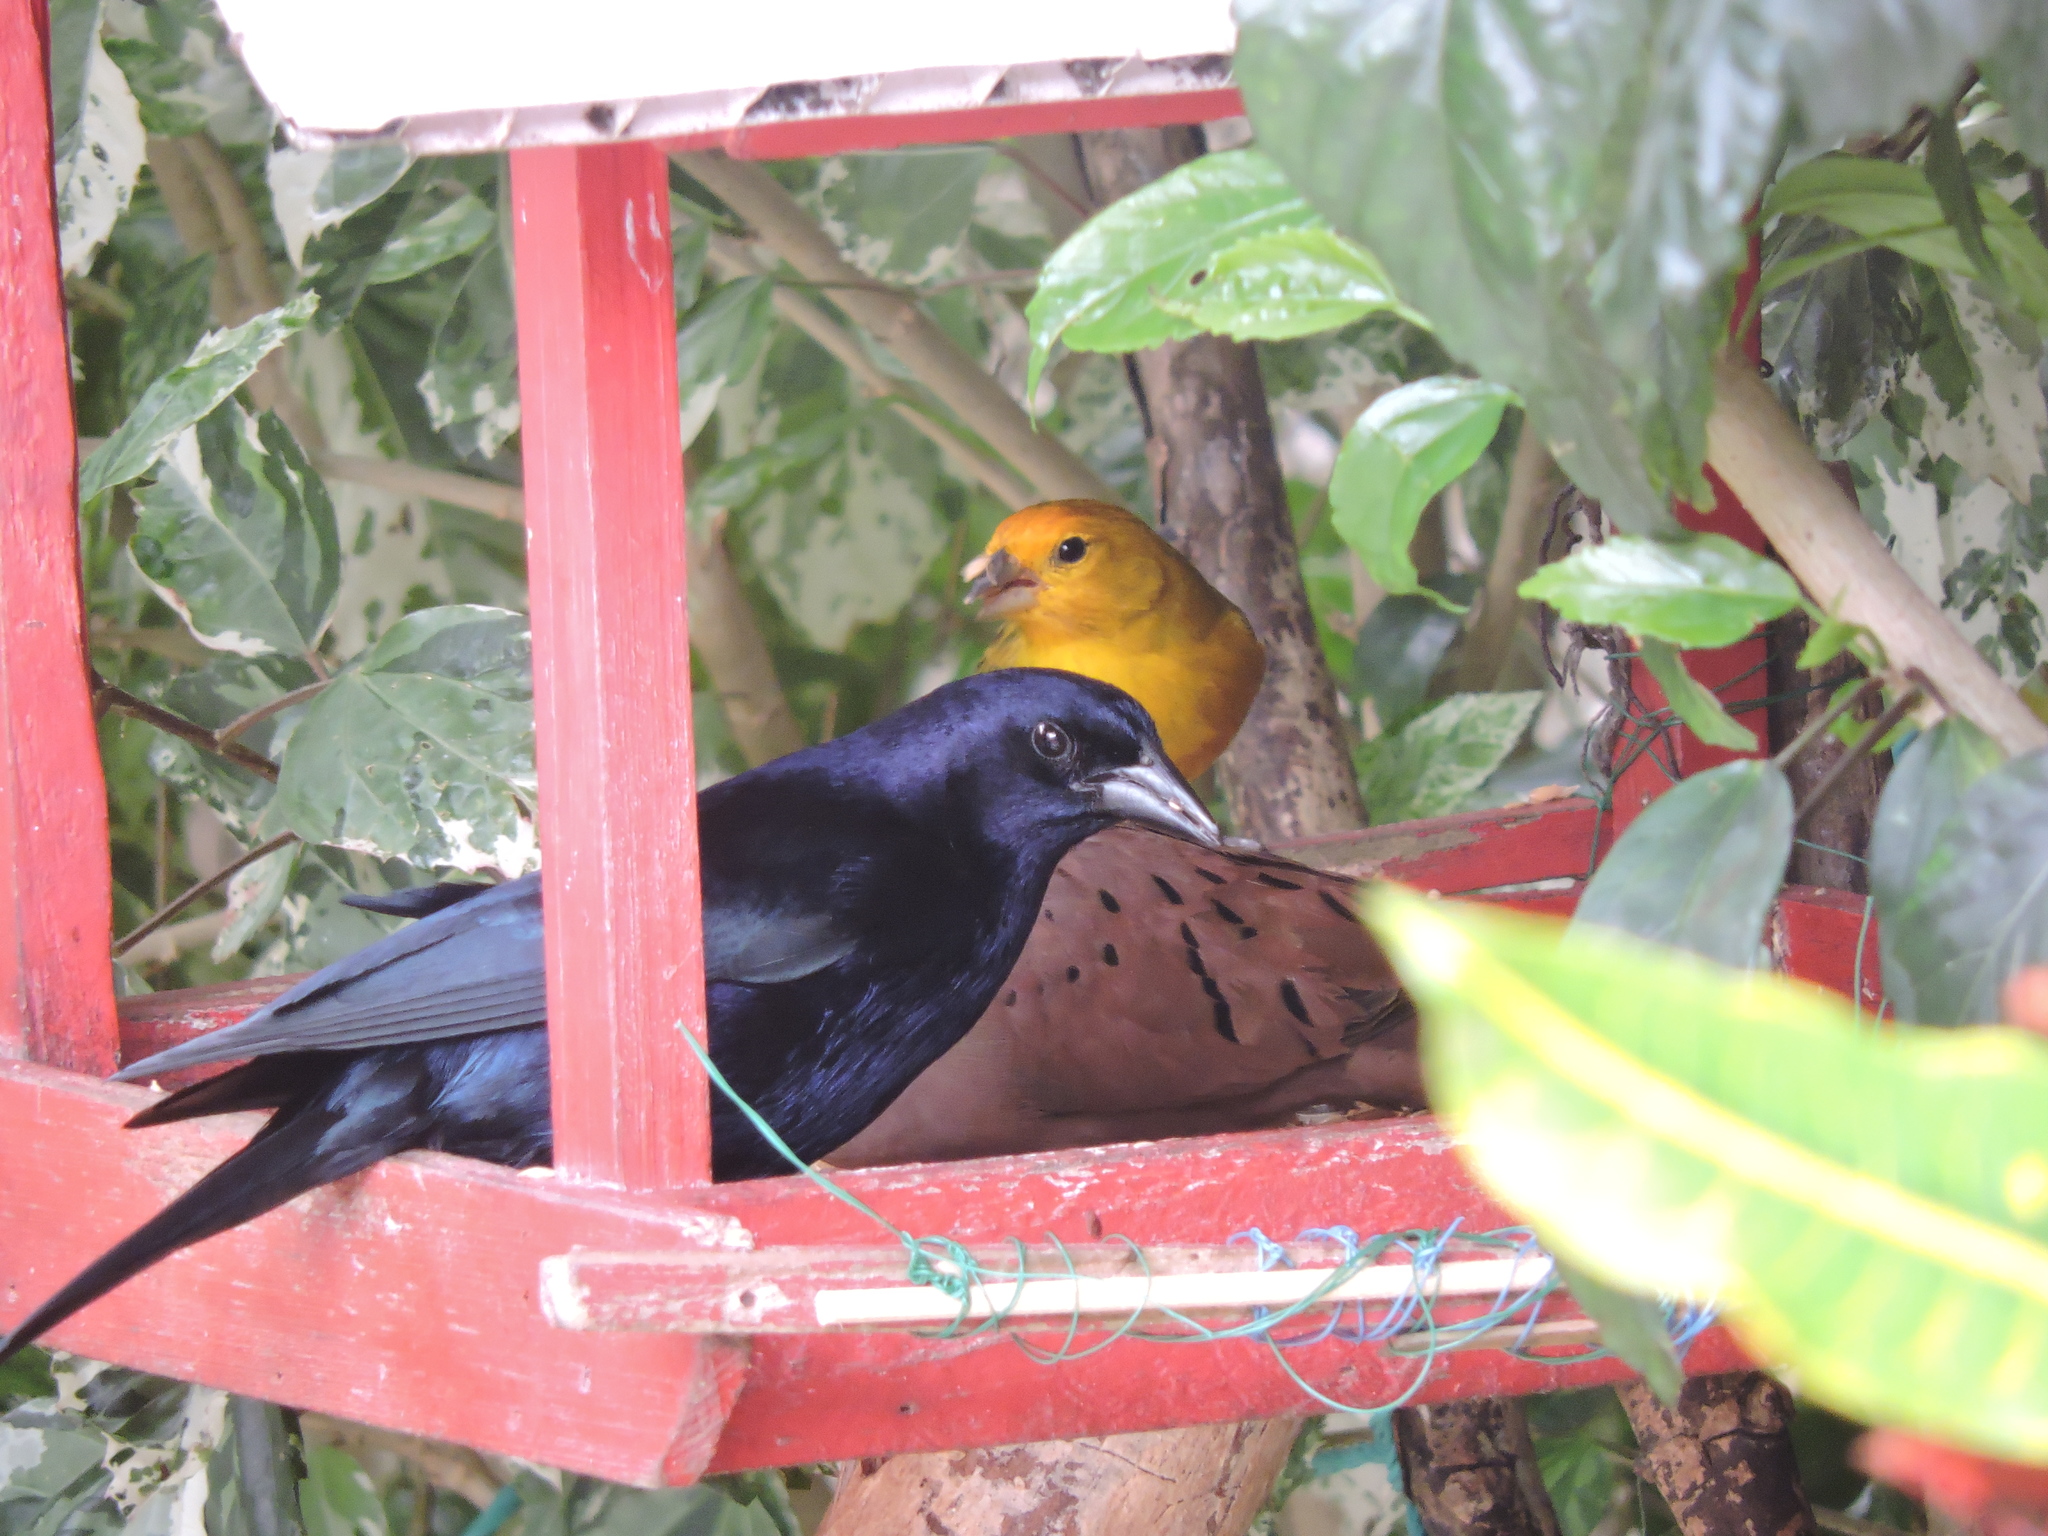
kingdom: Animalia
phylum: Chordata
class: Aves
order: Passeriformes
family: Icteridae
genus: Molothrus
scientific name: Molothrus bonariensis
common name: Shiny cowbird
